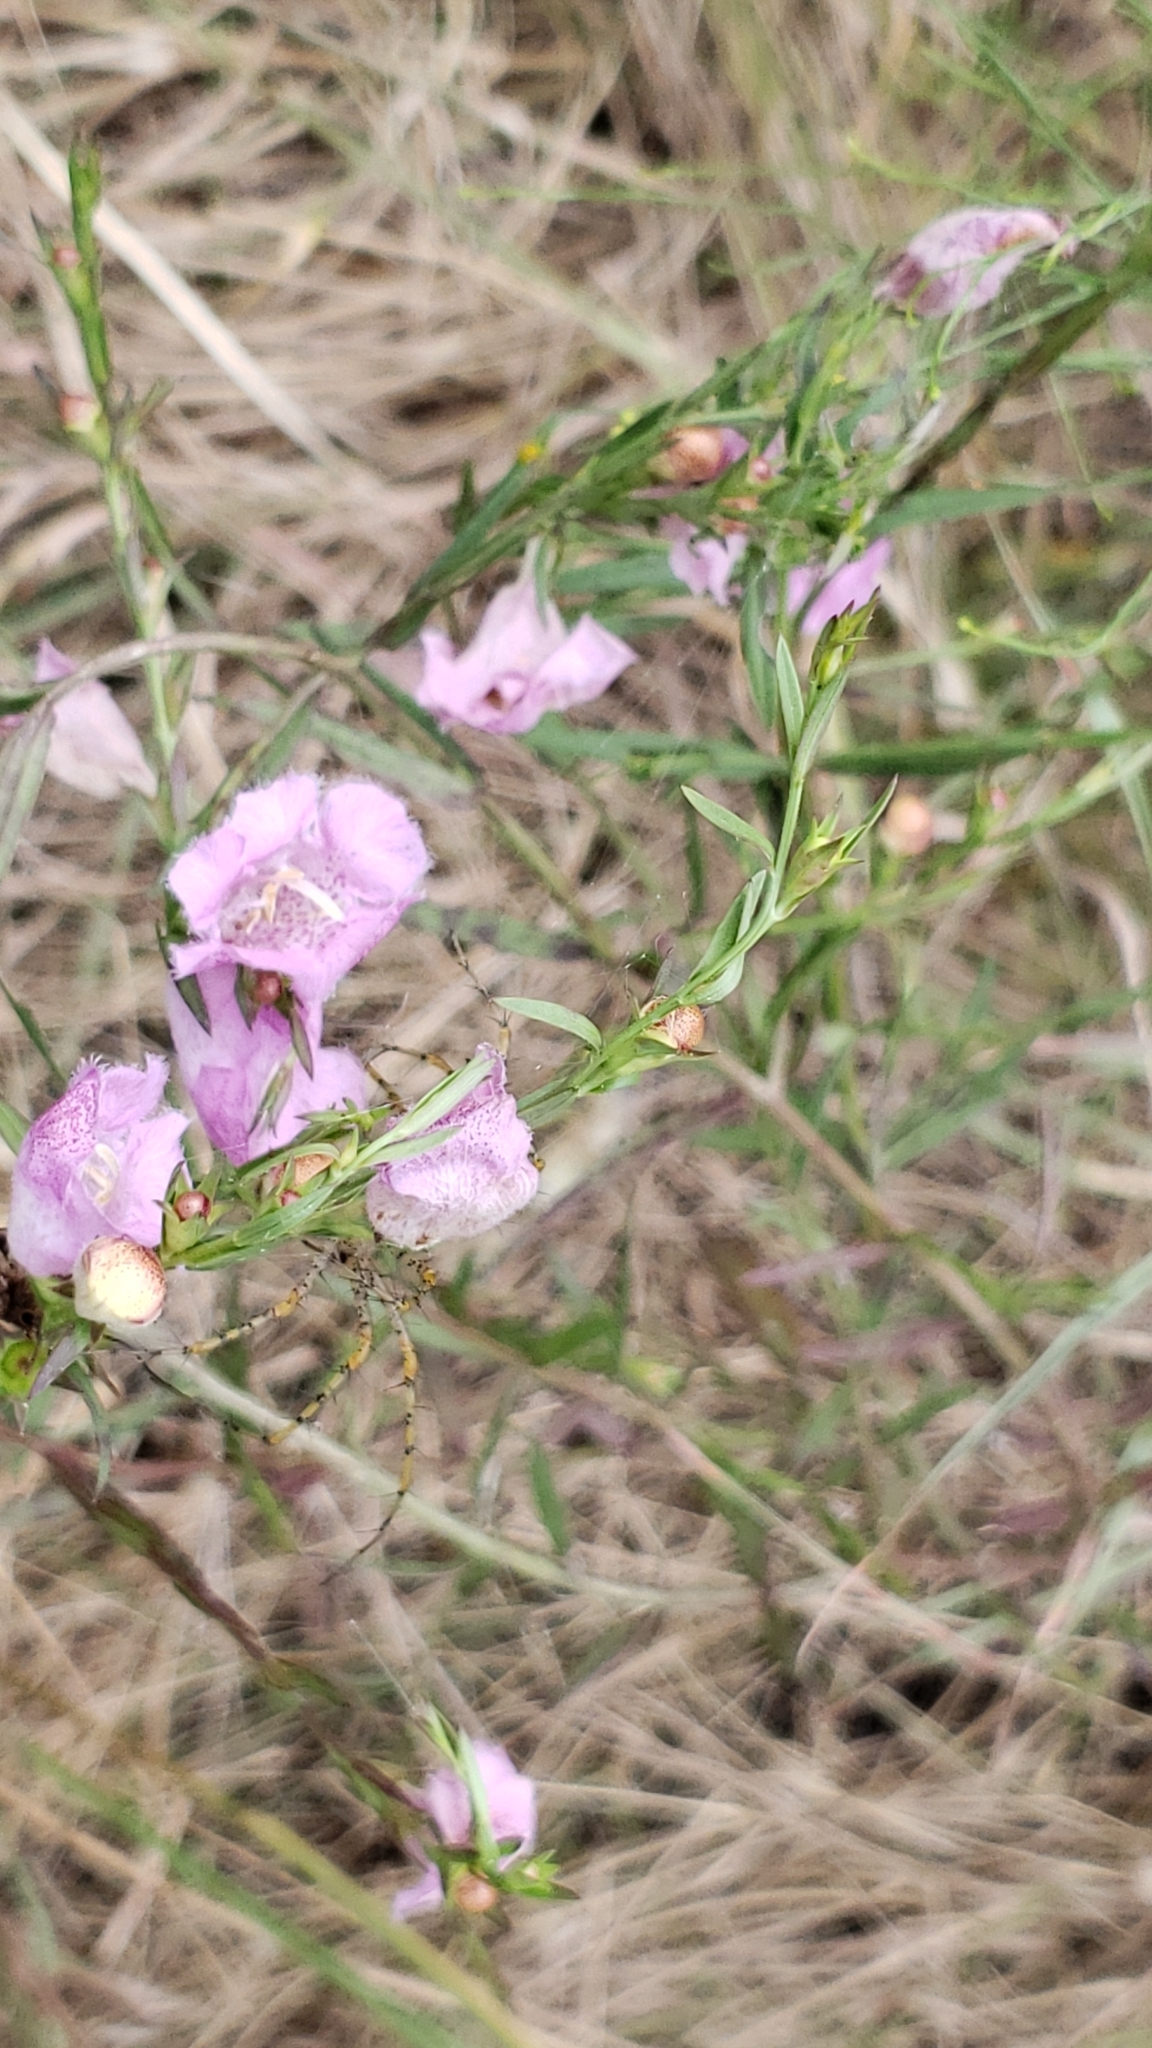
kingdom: Plantae
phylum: Tracheophyta
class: Magnoliopsida
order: Lamiales
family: Orobanchaceae
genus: Agalinis
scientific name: Agalinis heterophylla
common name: Prairie agalinis
